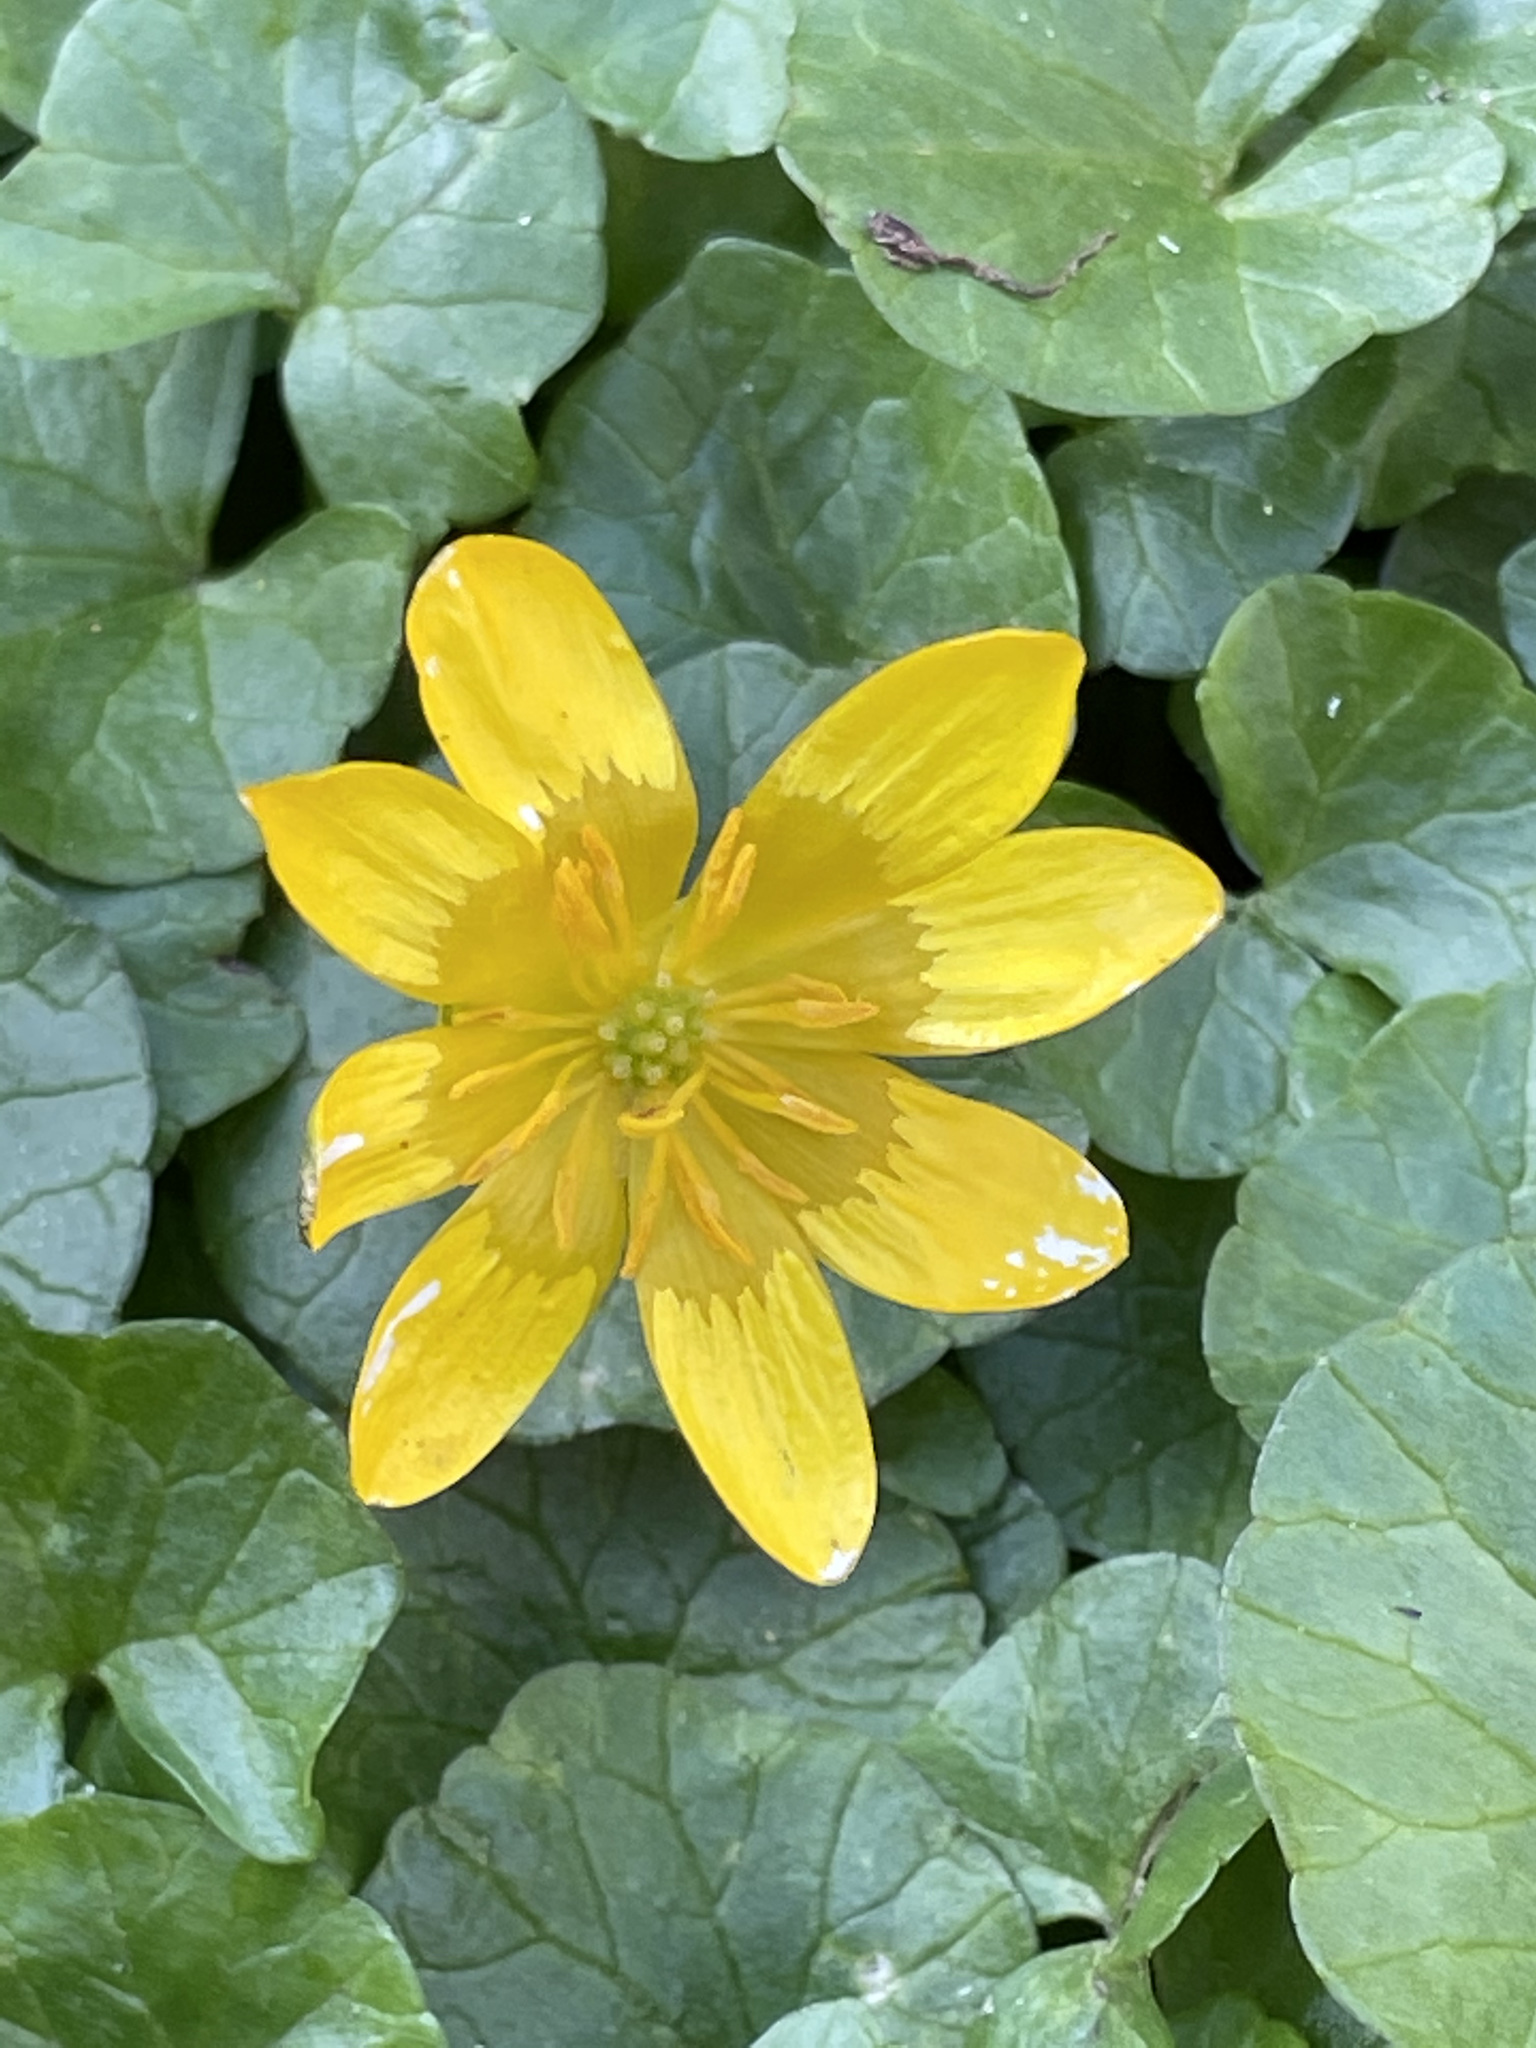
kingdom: Plantae
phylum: Tracheophyta
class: Magnoliopsida
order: Ranunculales
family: Ranunculaceae
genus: Ficaria
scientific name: Ficaria verna
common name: Lesser celandine
